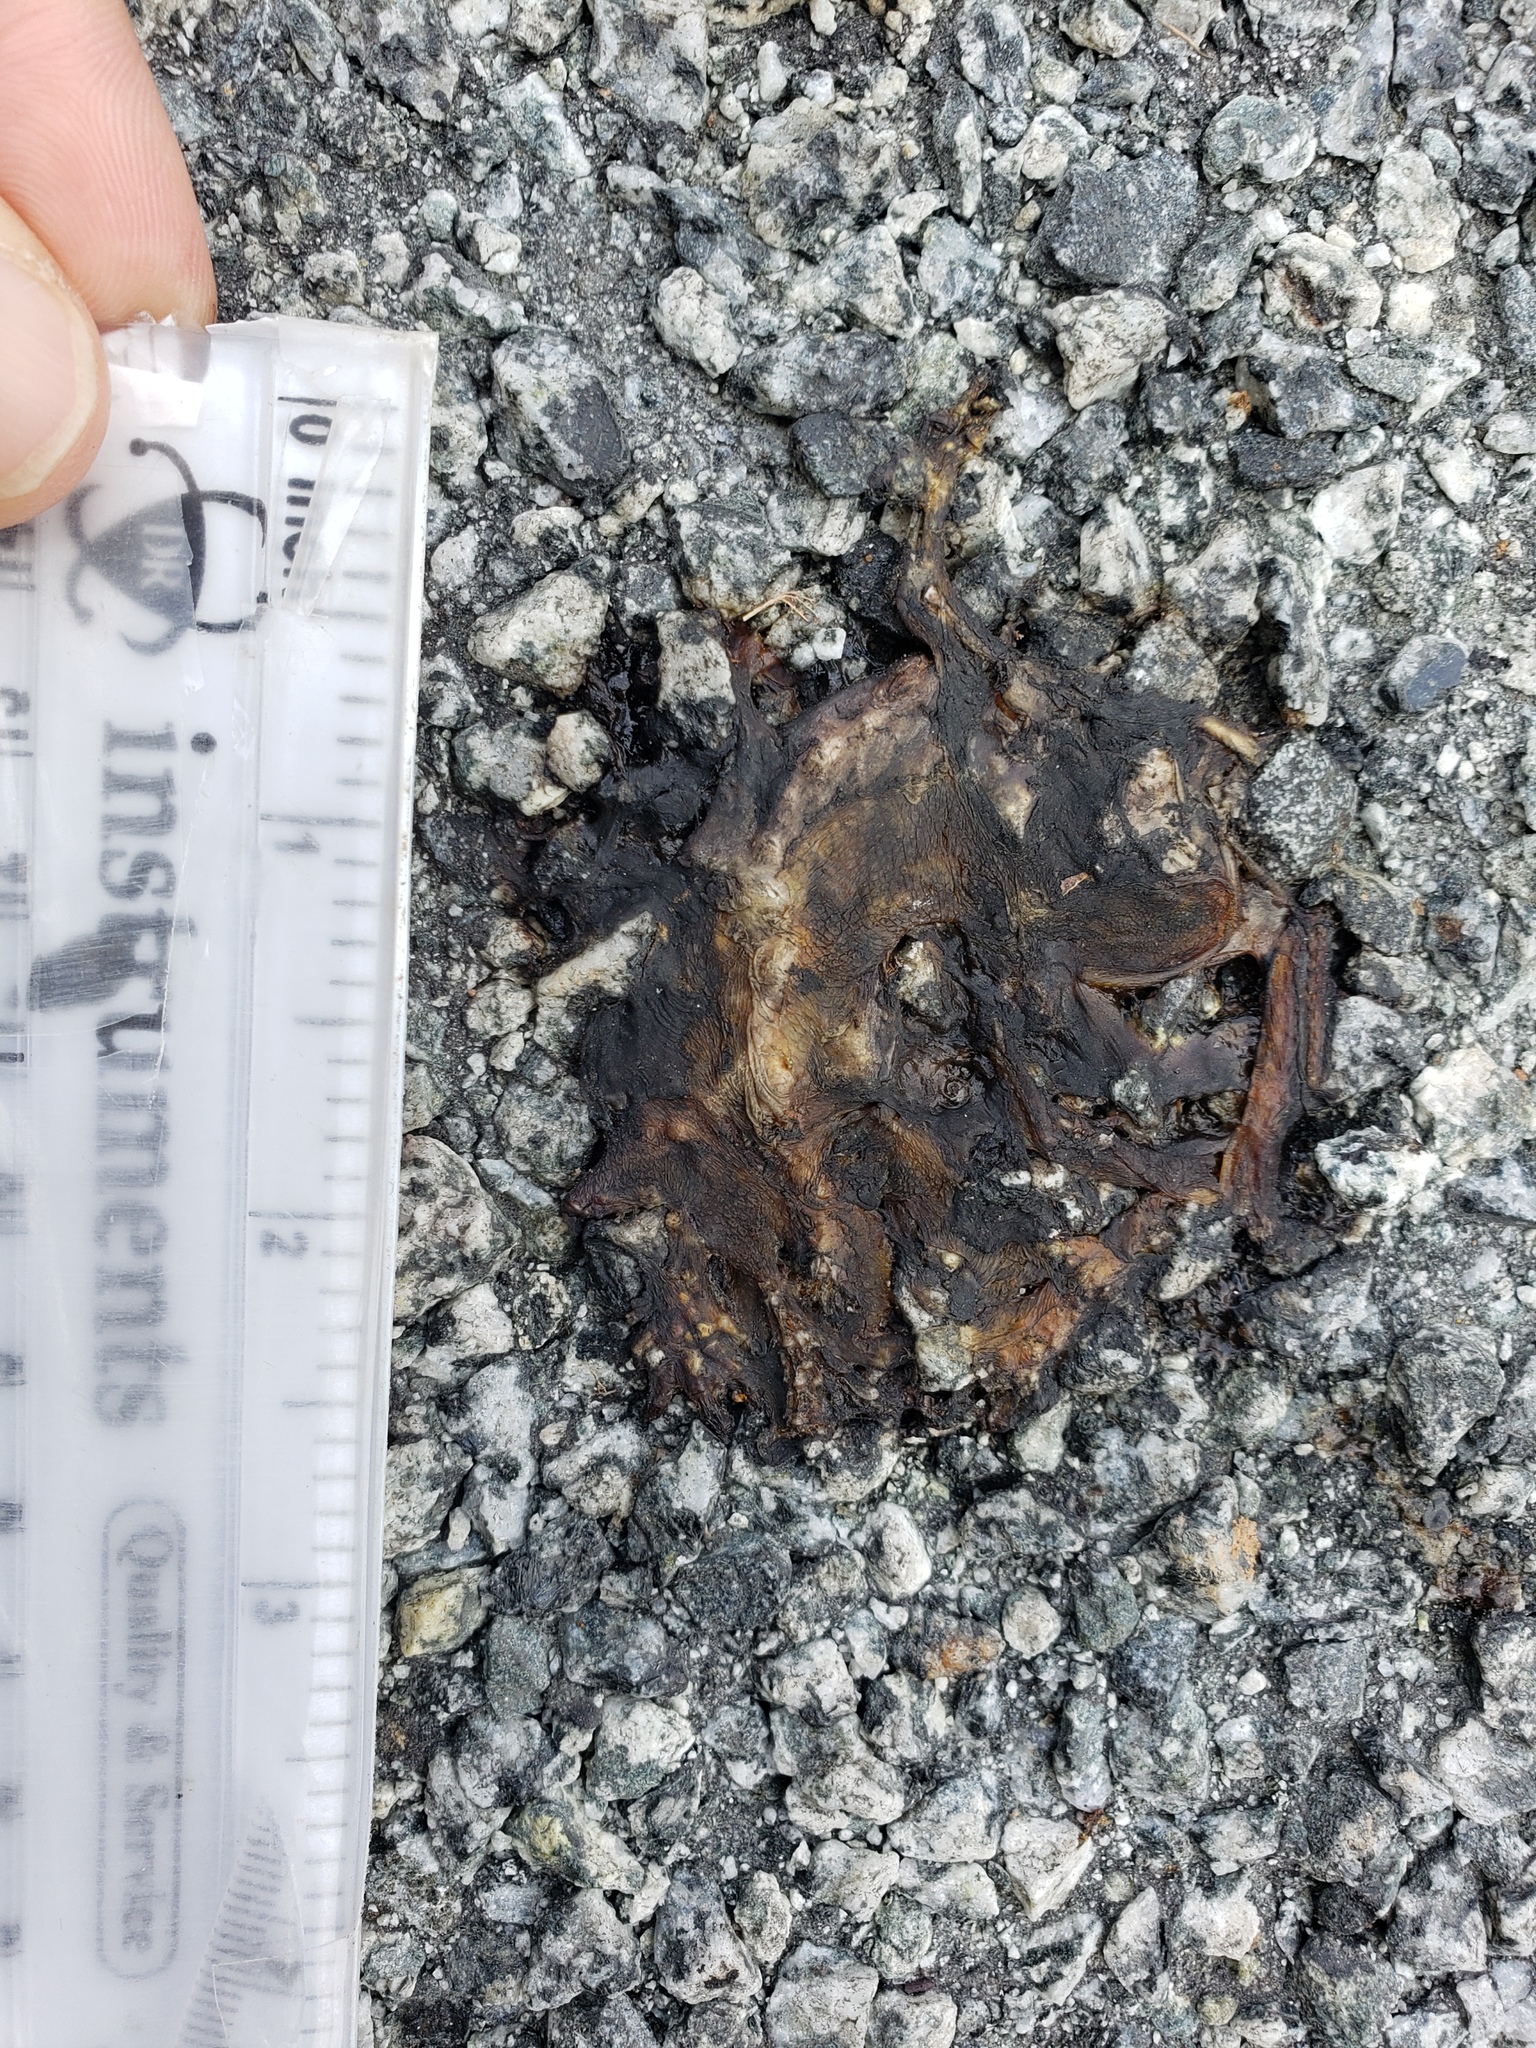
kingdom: Animalia
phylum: Chordata
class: Amphibia
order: Caudata
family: Salamandridae
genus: Taricha
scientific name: Taricha
